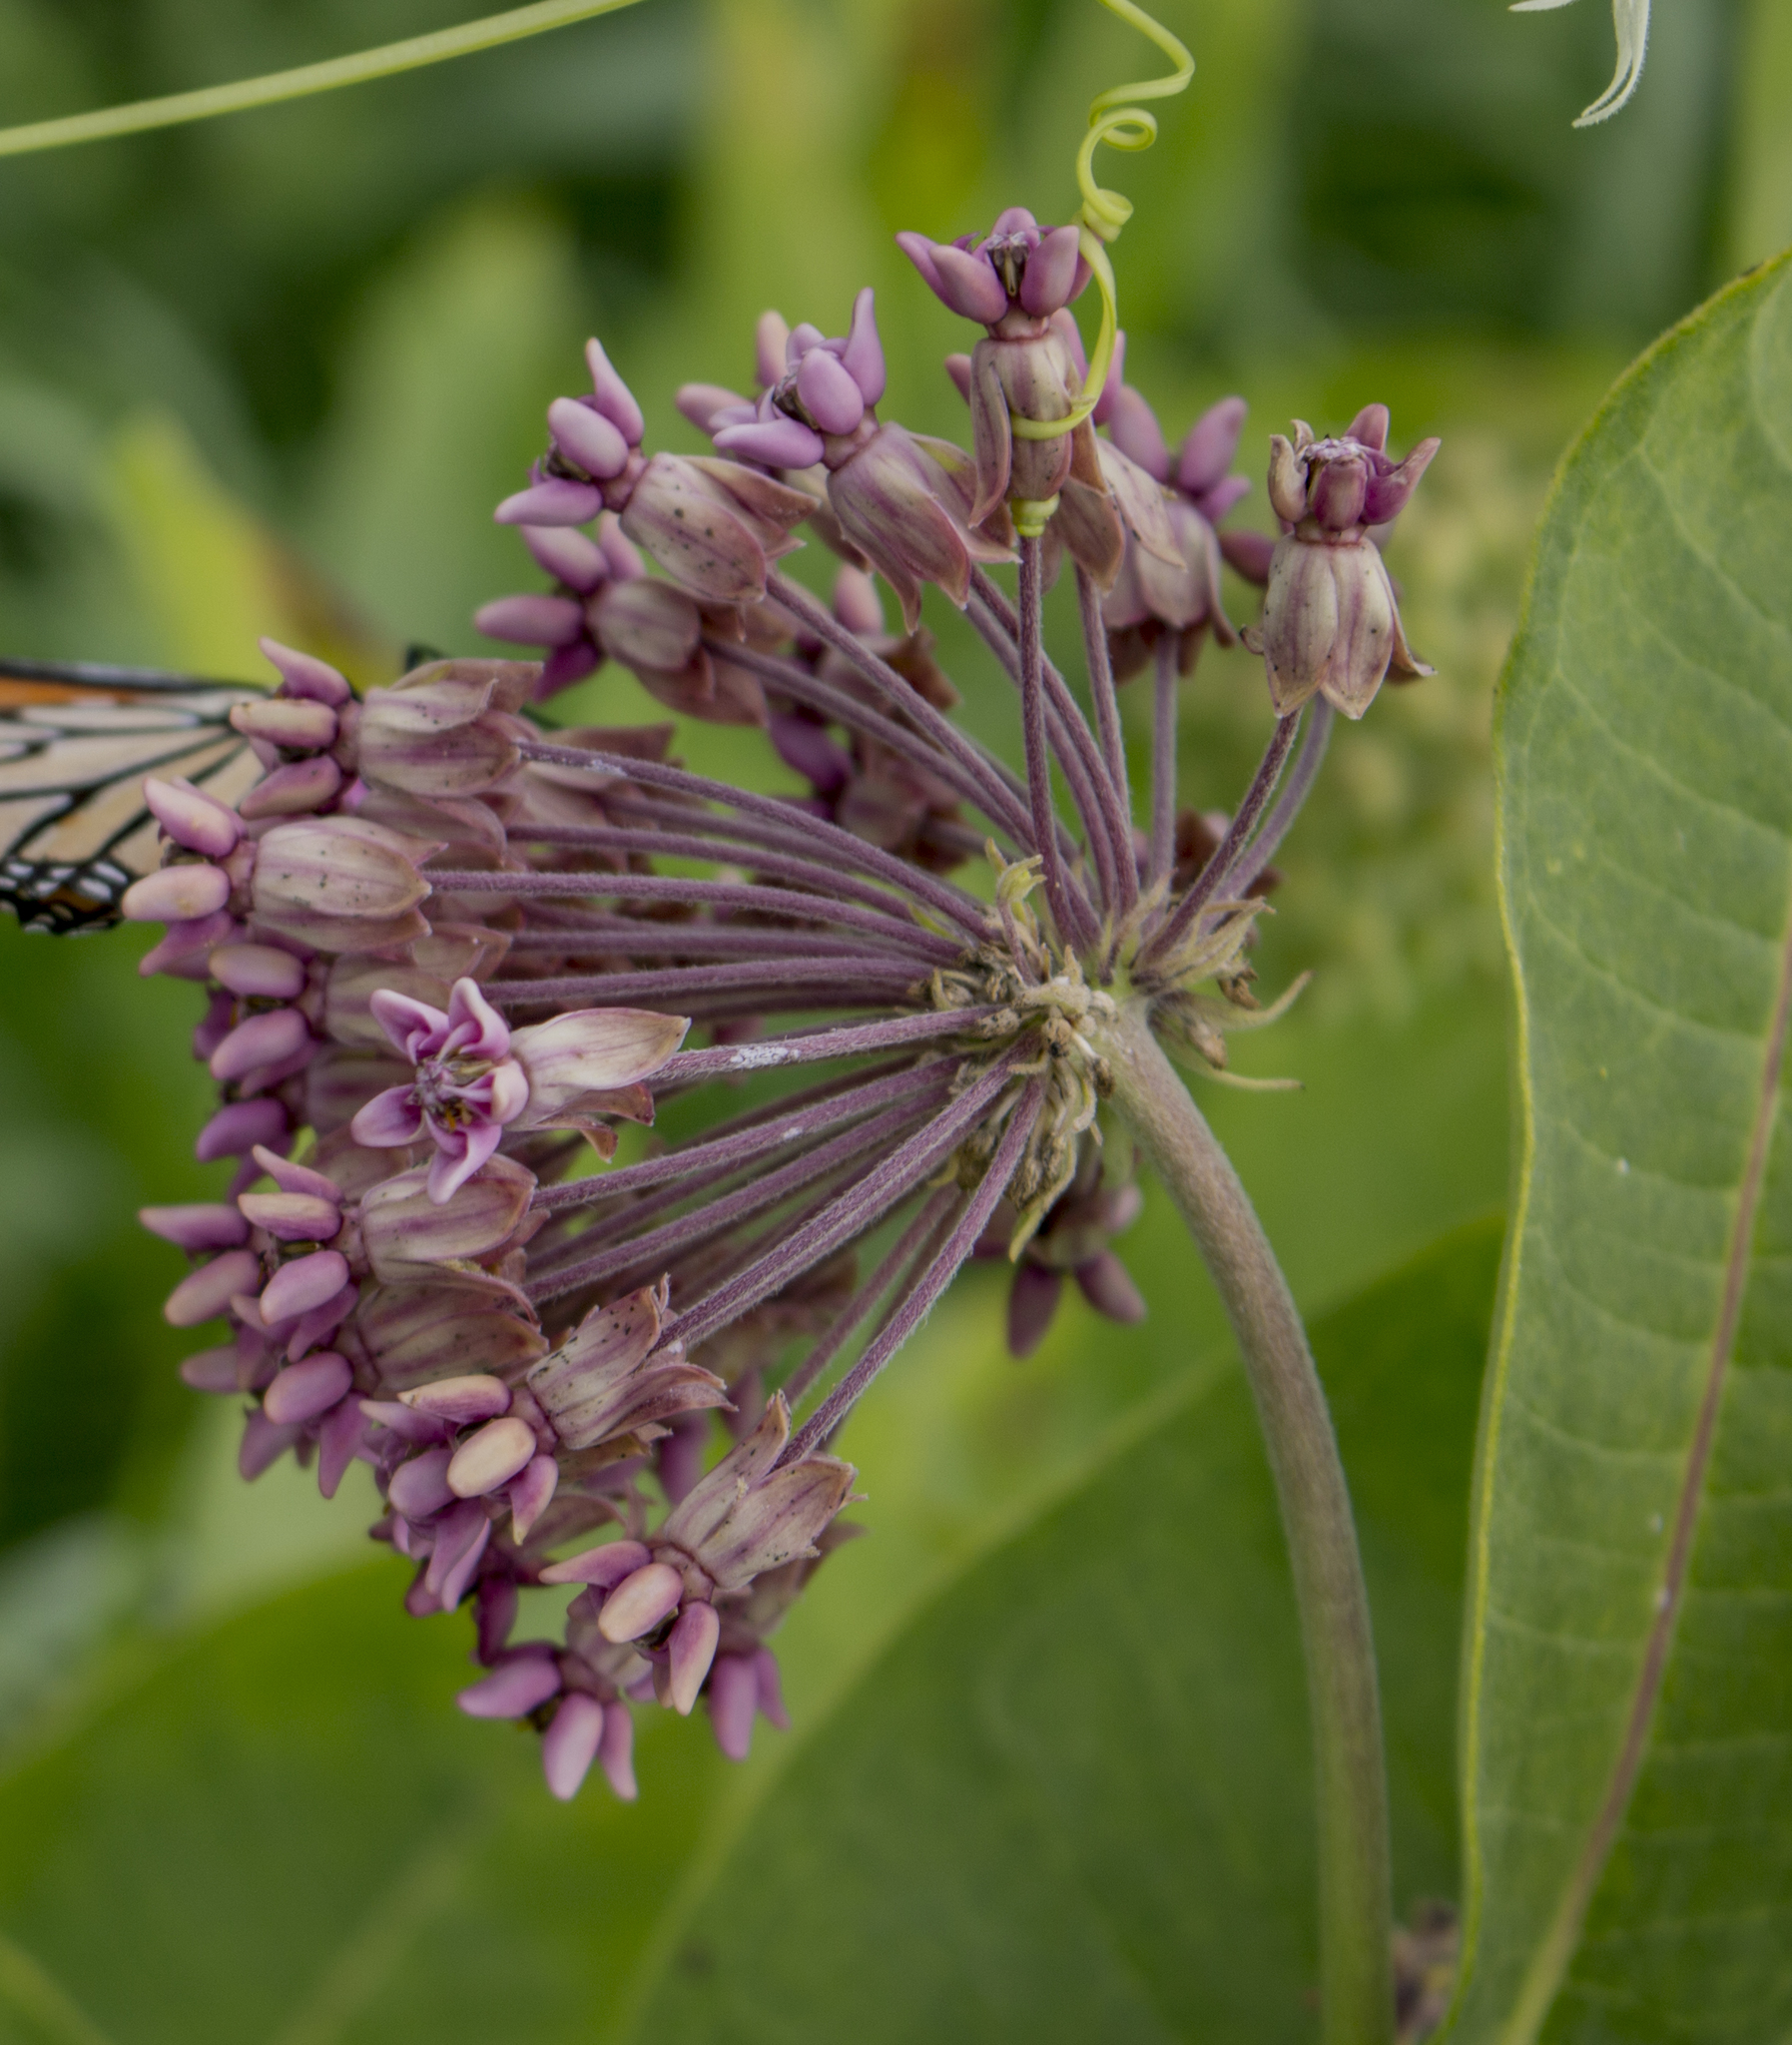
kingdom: Plantae
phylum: Tracheophyta
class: Magnoliopsida
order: Gentianales
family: Apocynaceae
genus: Asclepias
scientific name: Asclepias syriaca
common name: Common milkweed
